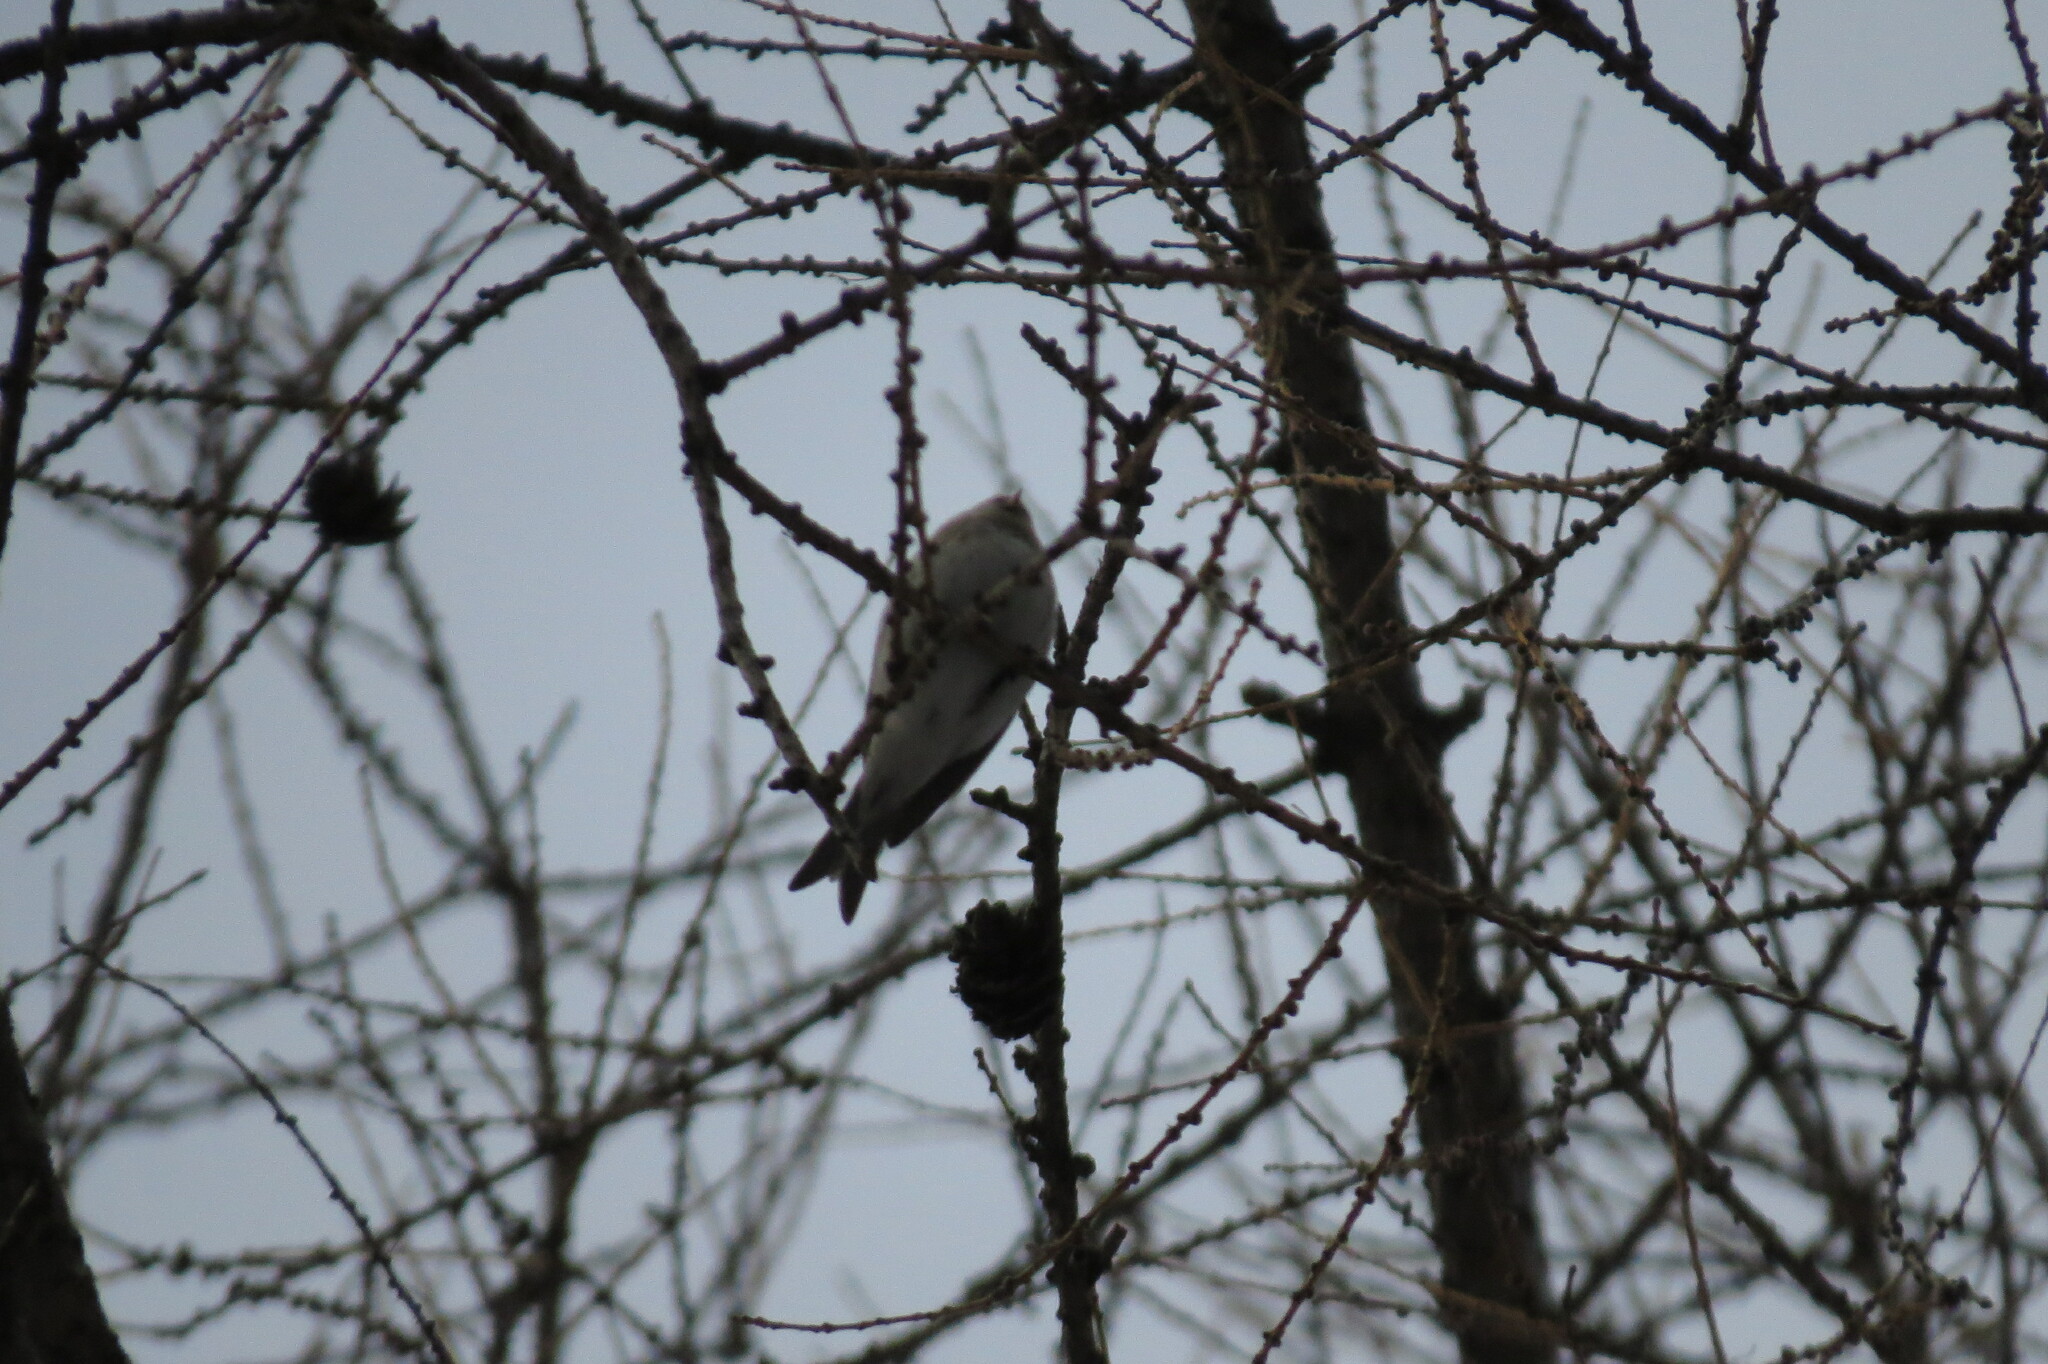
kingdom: Animalia
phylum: Chordata
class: Aves
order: Passeriformes
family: Fringillidae
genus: Acanthis
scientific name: Acanthis flammea
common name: Common redpoll
